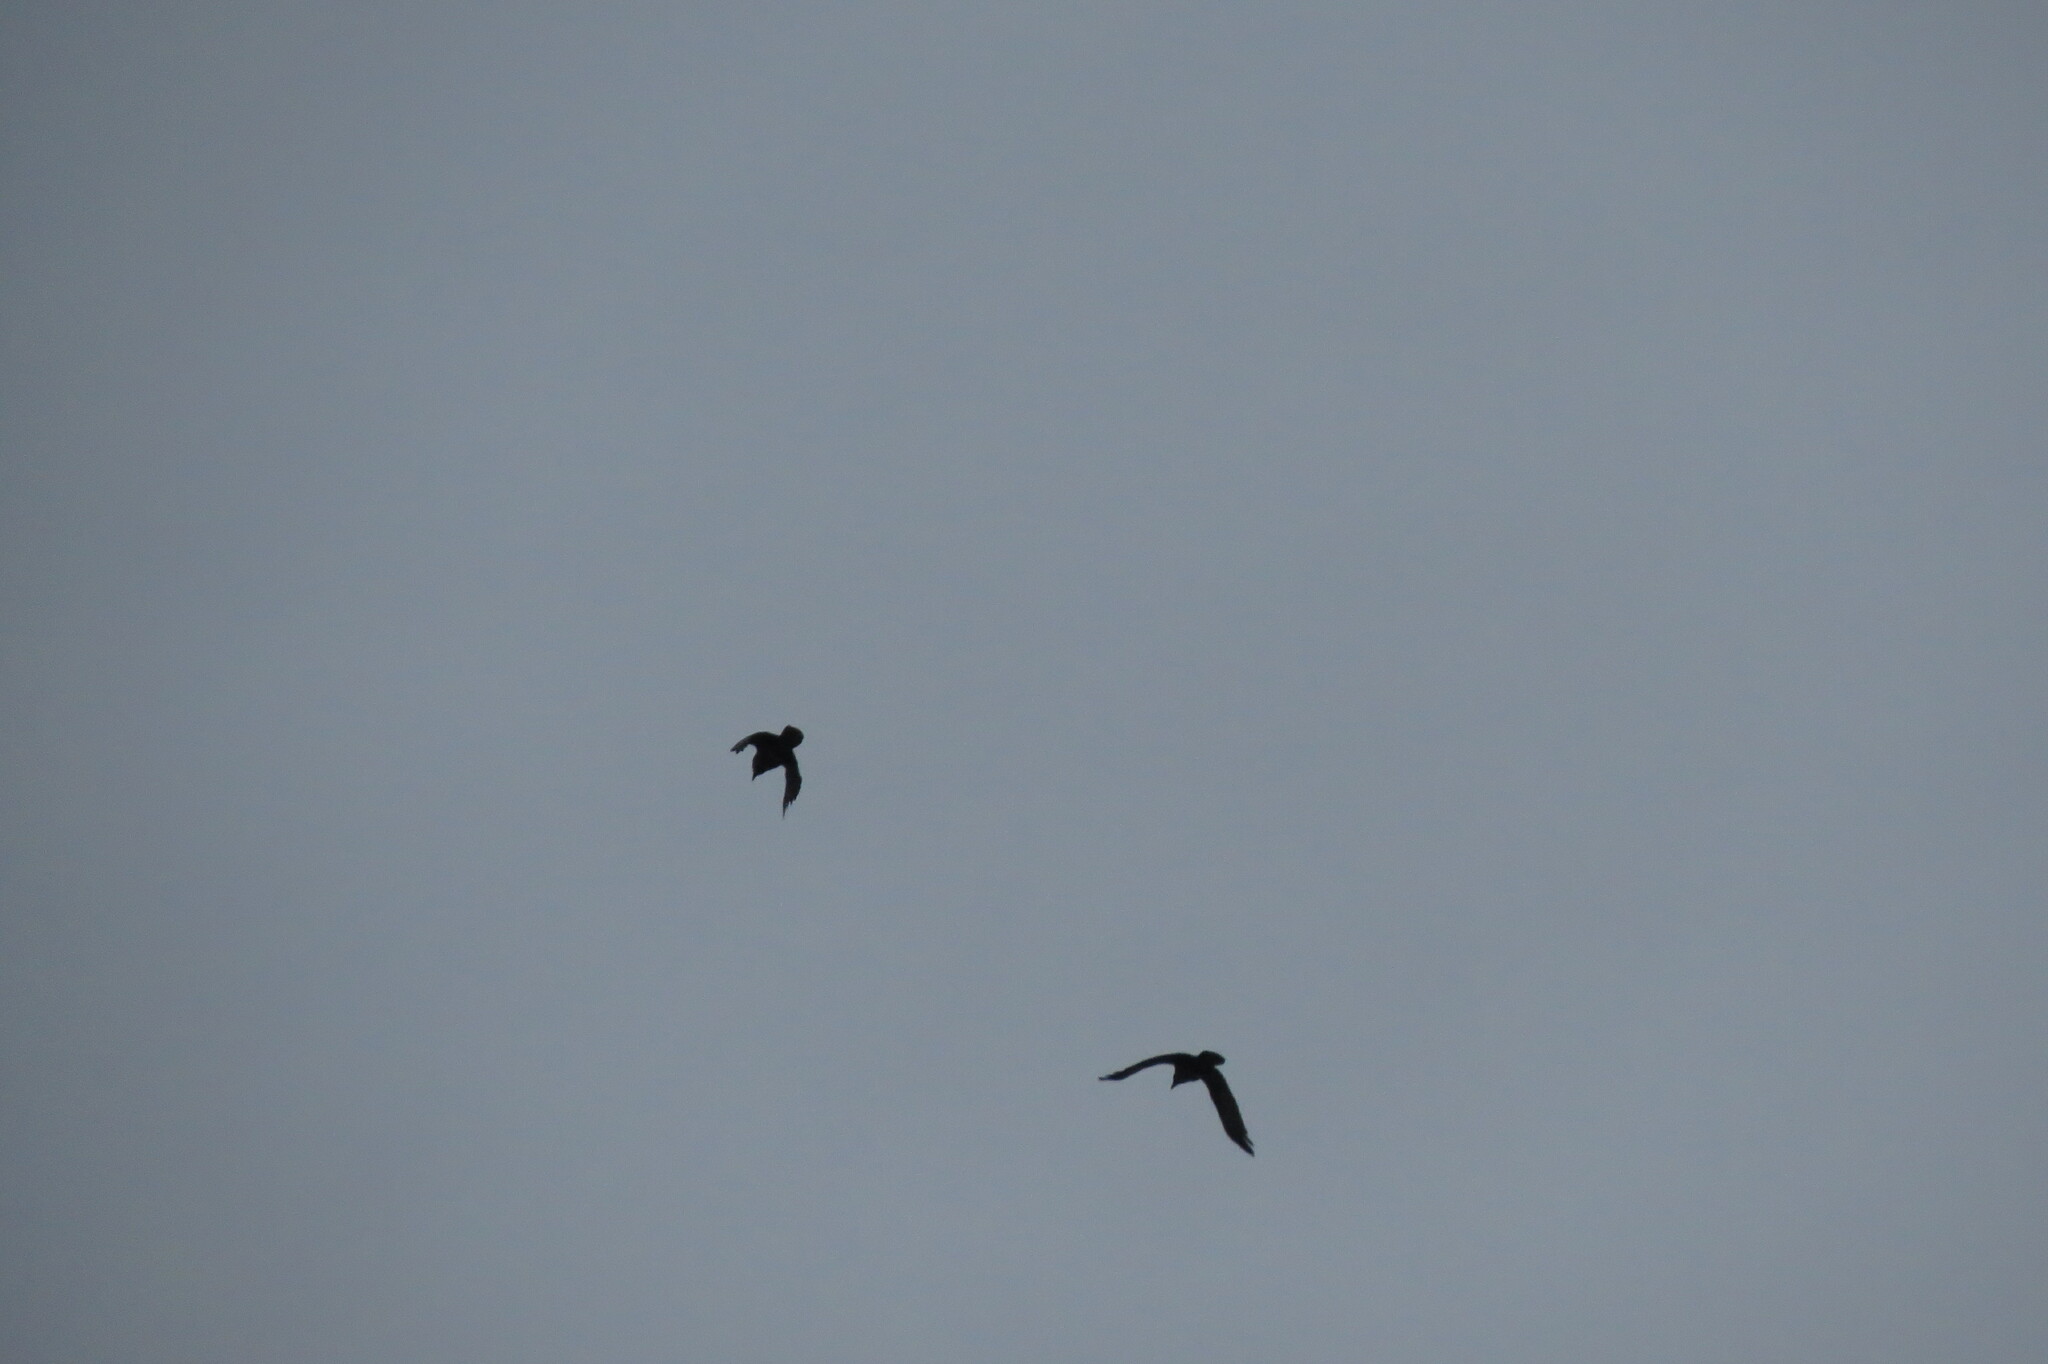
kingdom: Animalia
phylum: Chordata
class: Aves
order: Passeriformes
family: Corvidae
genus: Corvus
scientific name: Corvus corax
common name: Common raven
